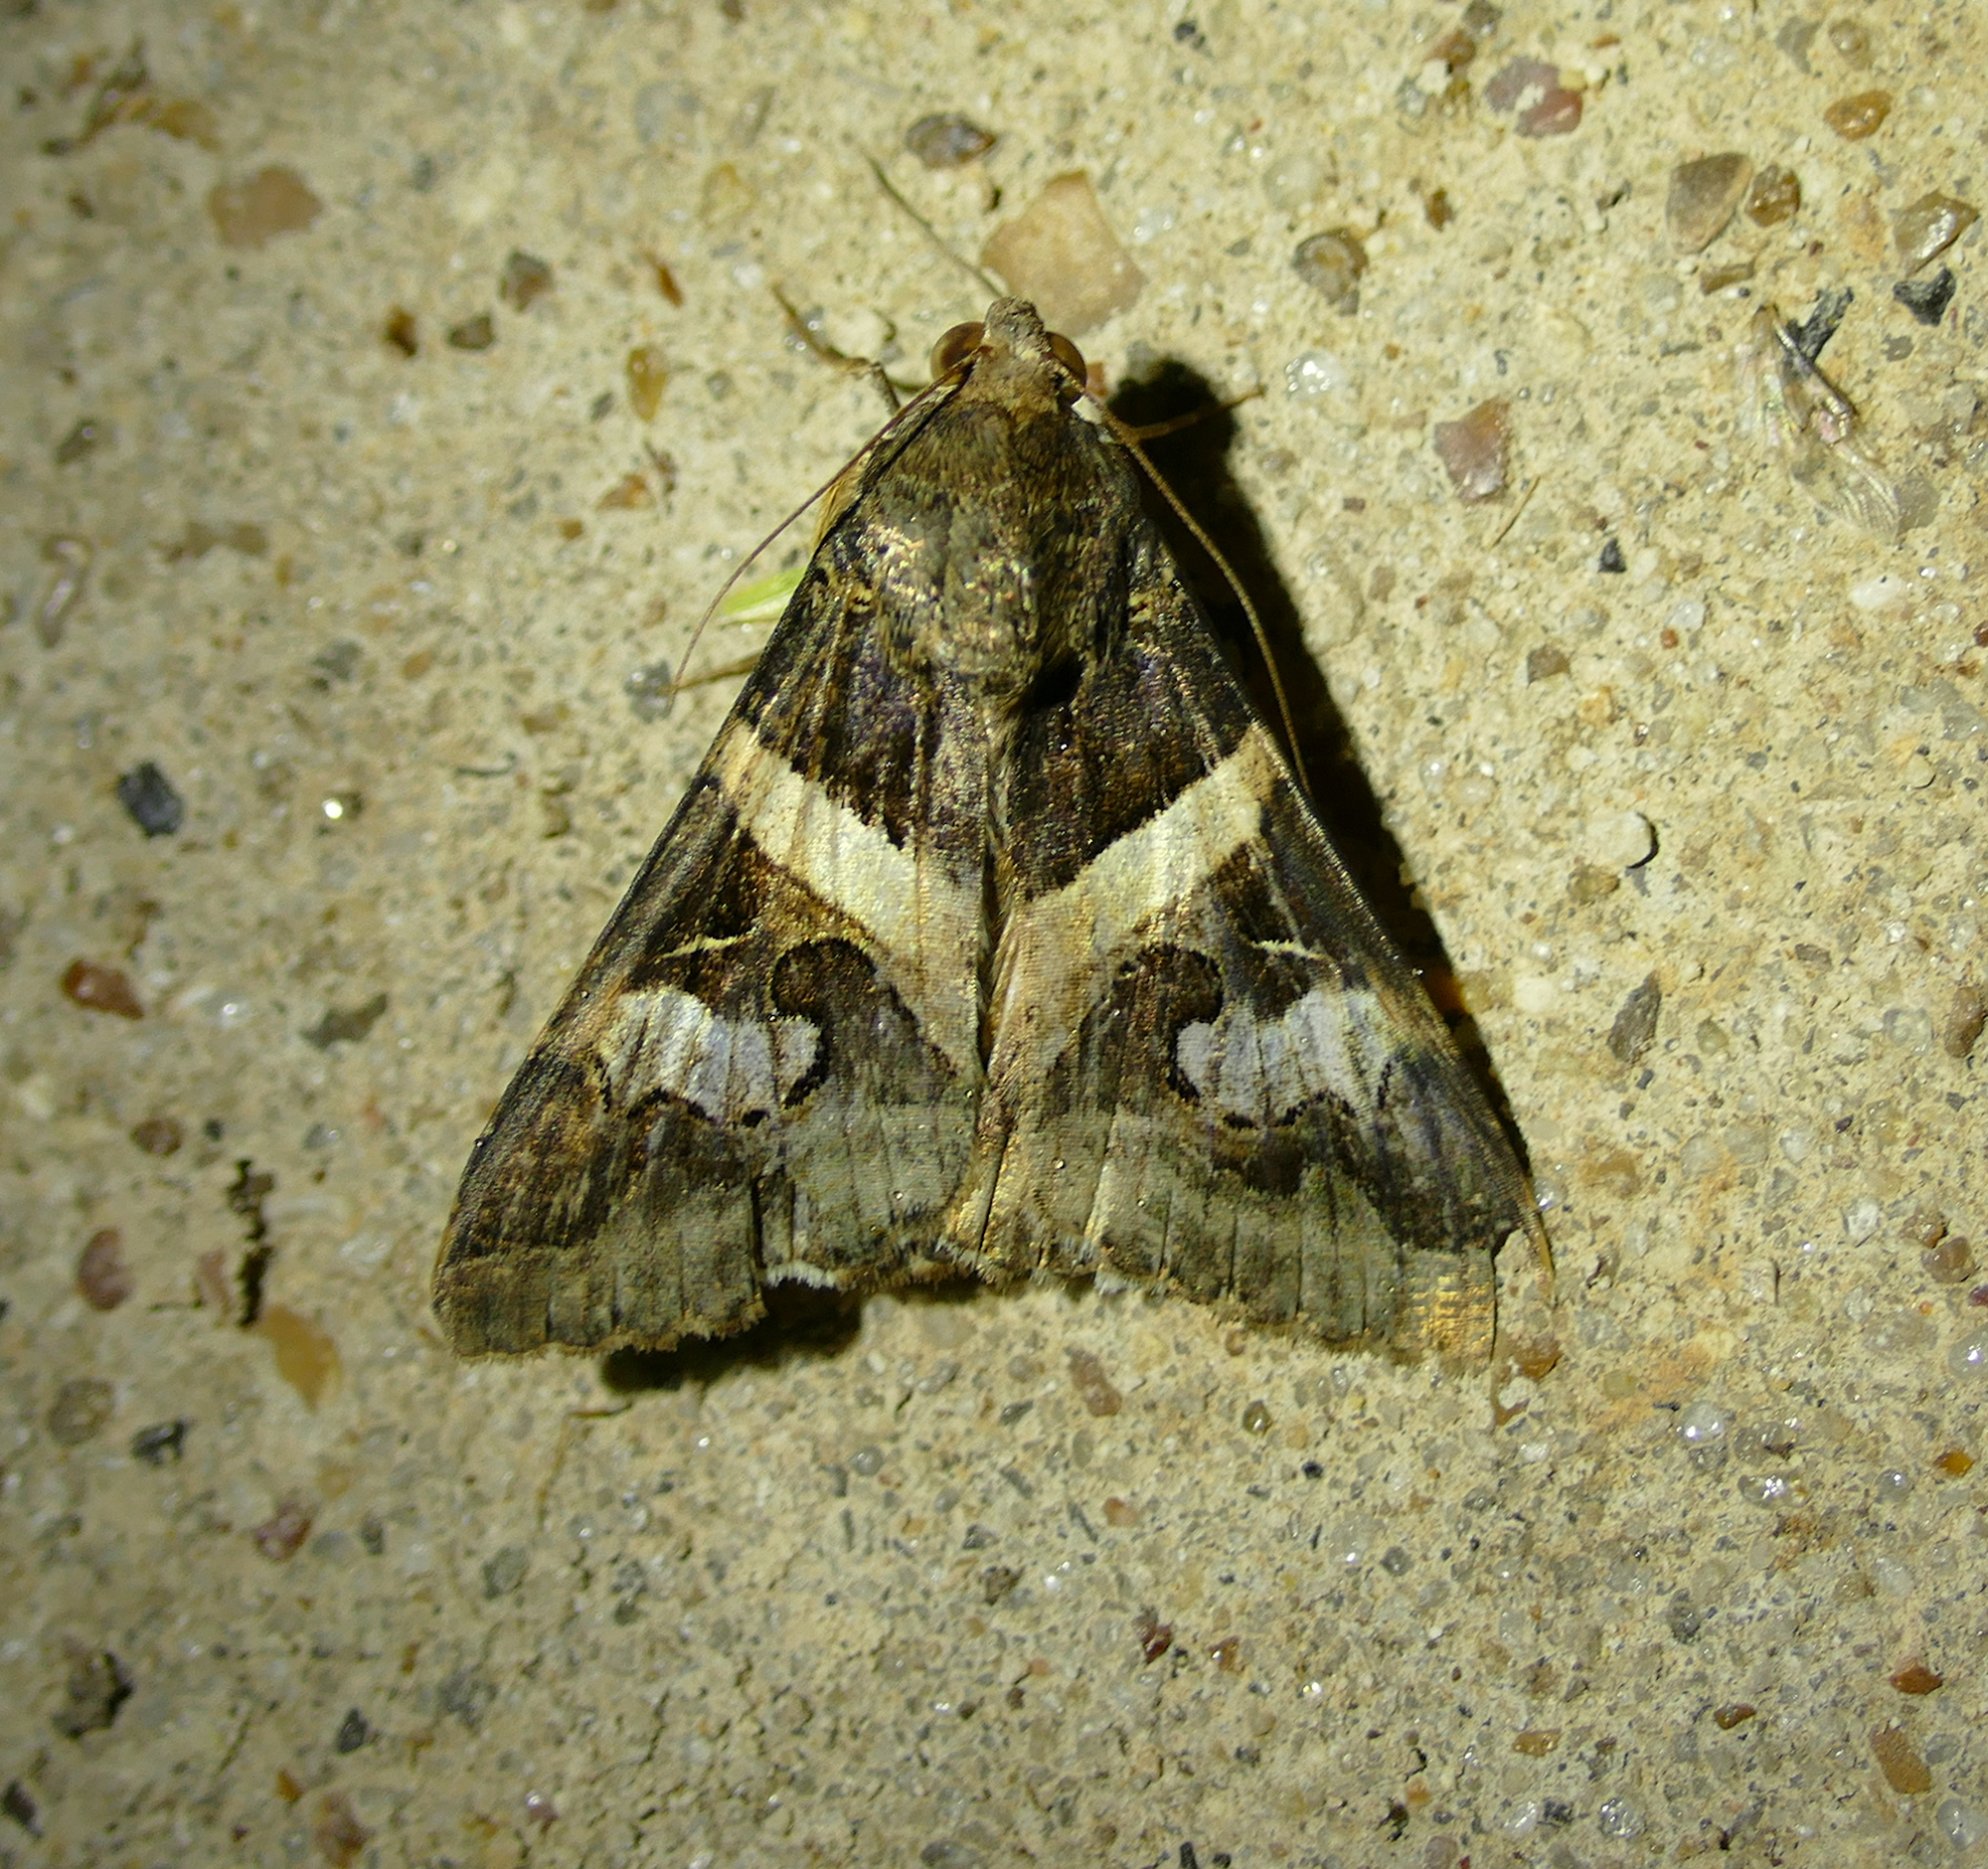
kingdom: Animalia
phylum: Arthropoda
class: Insecta
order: Lepidoptera
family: Erebidae
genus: Melipotis
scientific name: Melipotis indomita
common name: Moth
